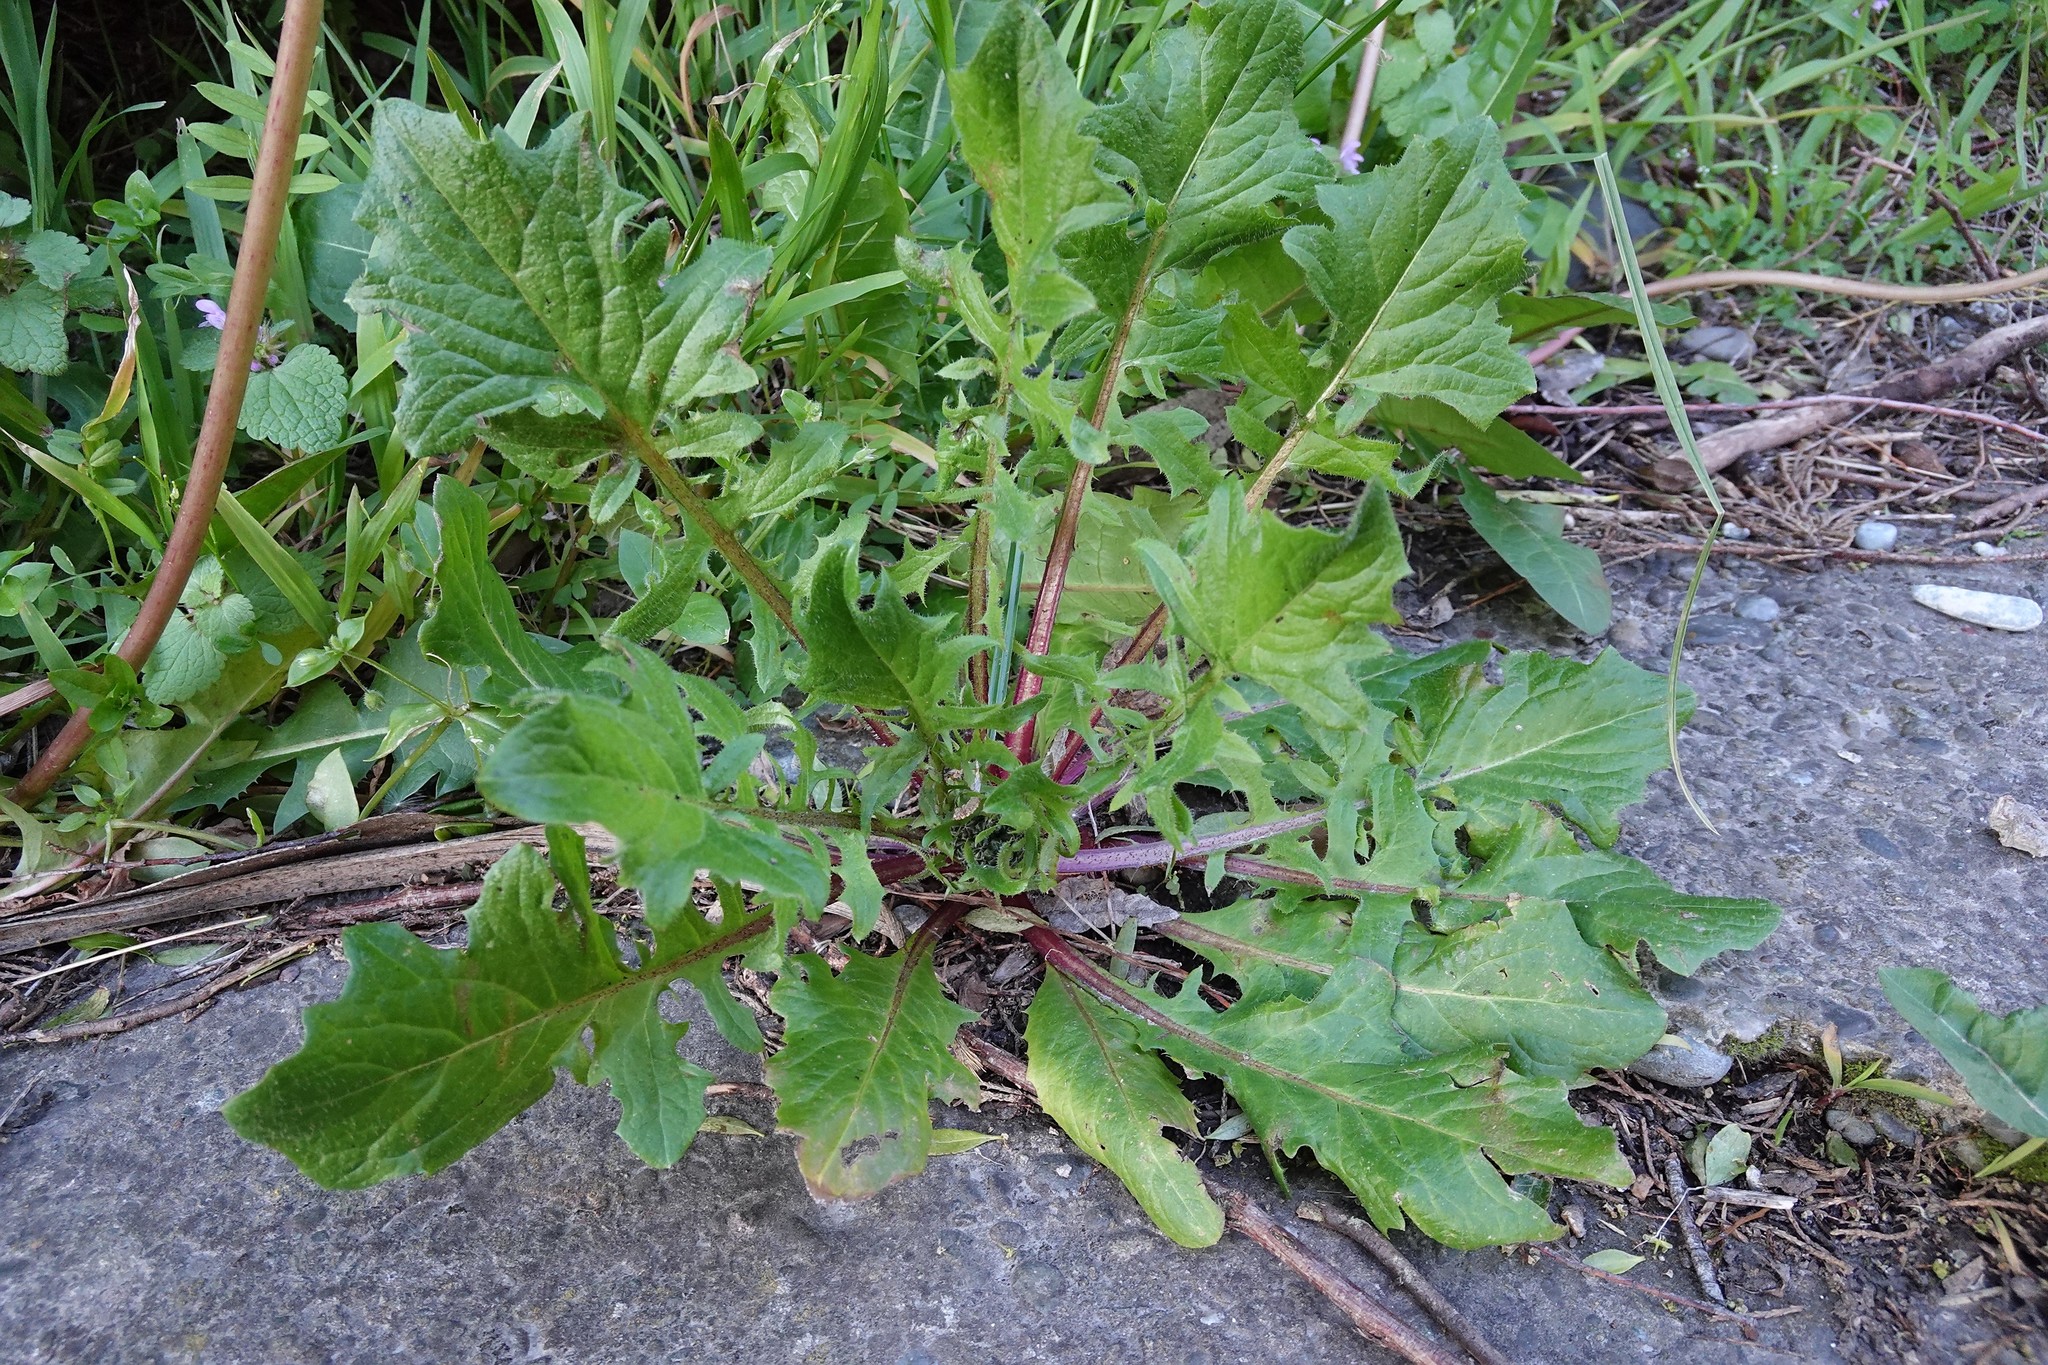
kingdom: Plantae
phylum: Tracheophyta
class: Magnoliopsida
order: Brassicales
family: Brassicaceae
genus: Sisymbrium
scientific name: Sisymbrium officinale
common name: Hedge mustard
